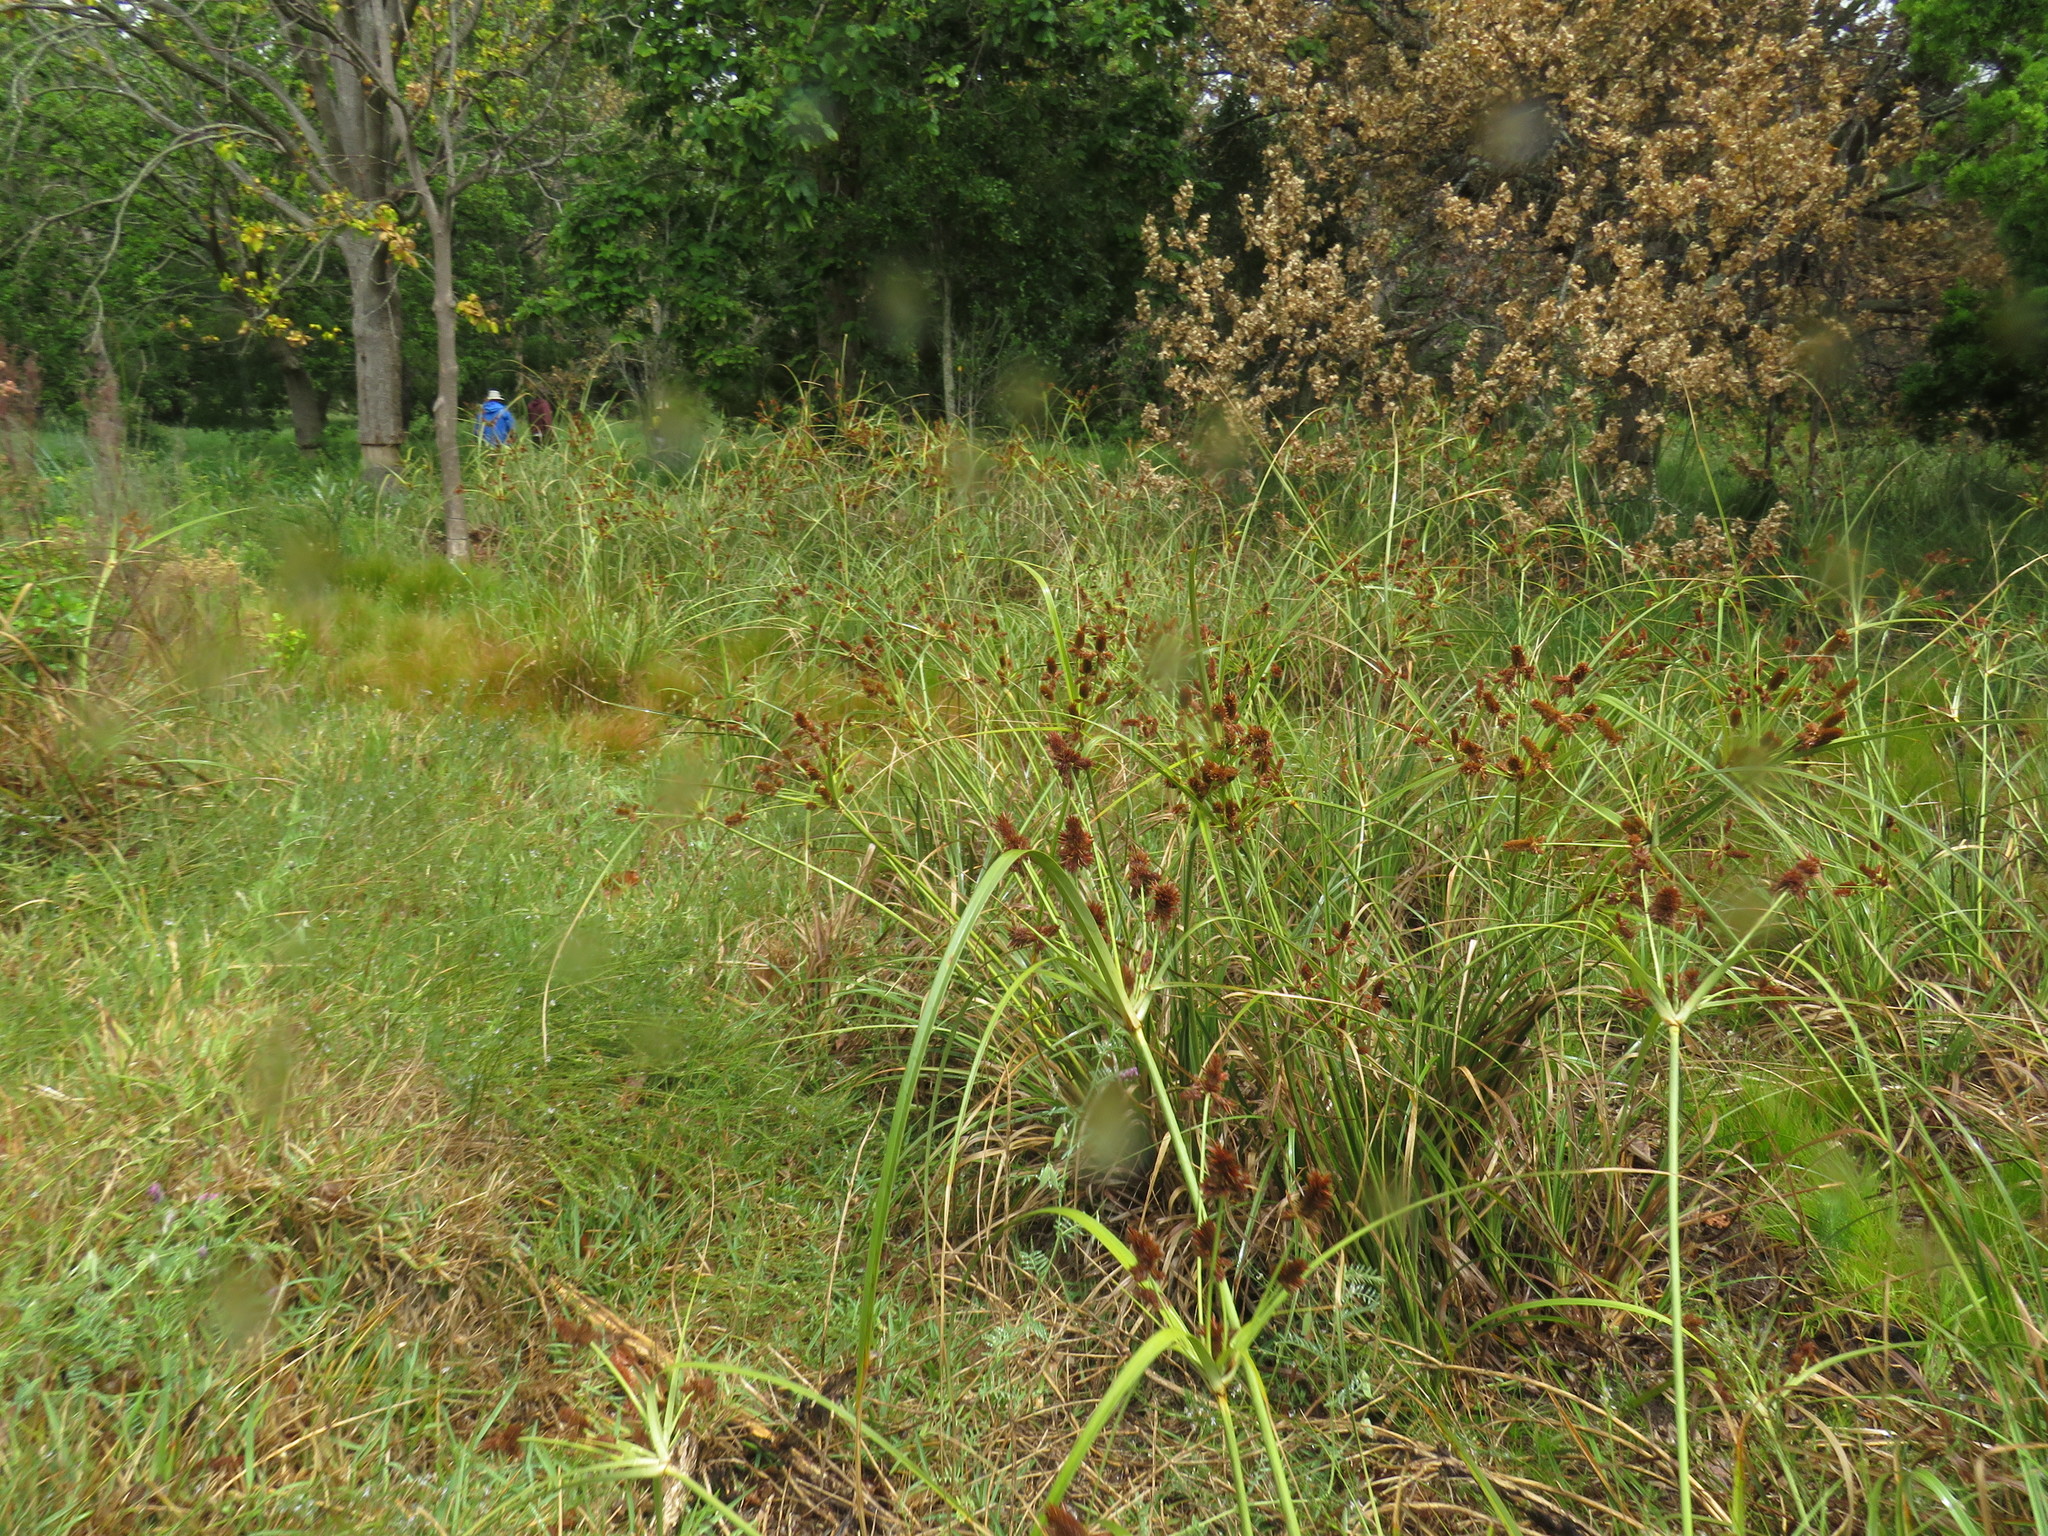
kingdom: Plantae
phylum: Tracheophyta
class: Liliopsida
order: Poales
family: Cyperaceae
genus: Cyperus
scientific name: Cyperus thunbergii
